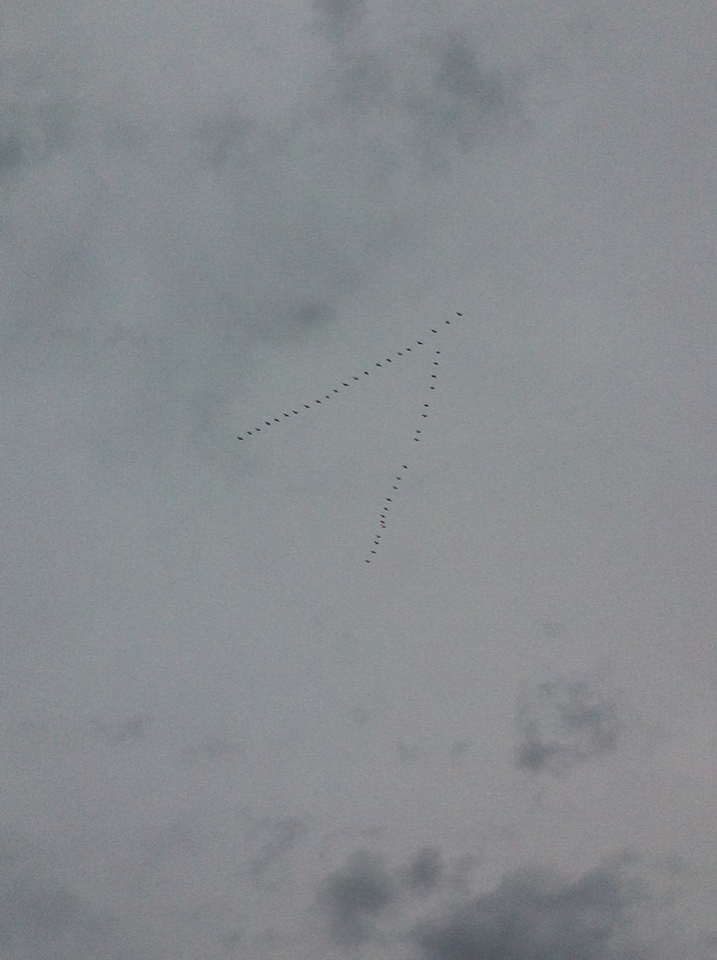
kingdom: Animalia
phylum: Chordata
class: Aves
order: Anseriformes
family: Anatidae
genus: Branta
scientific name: Branta canadensis
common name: Canada goose
